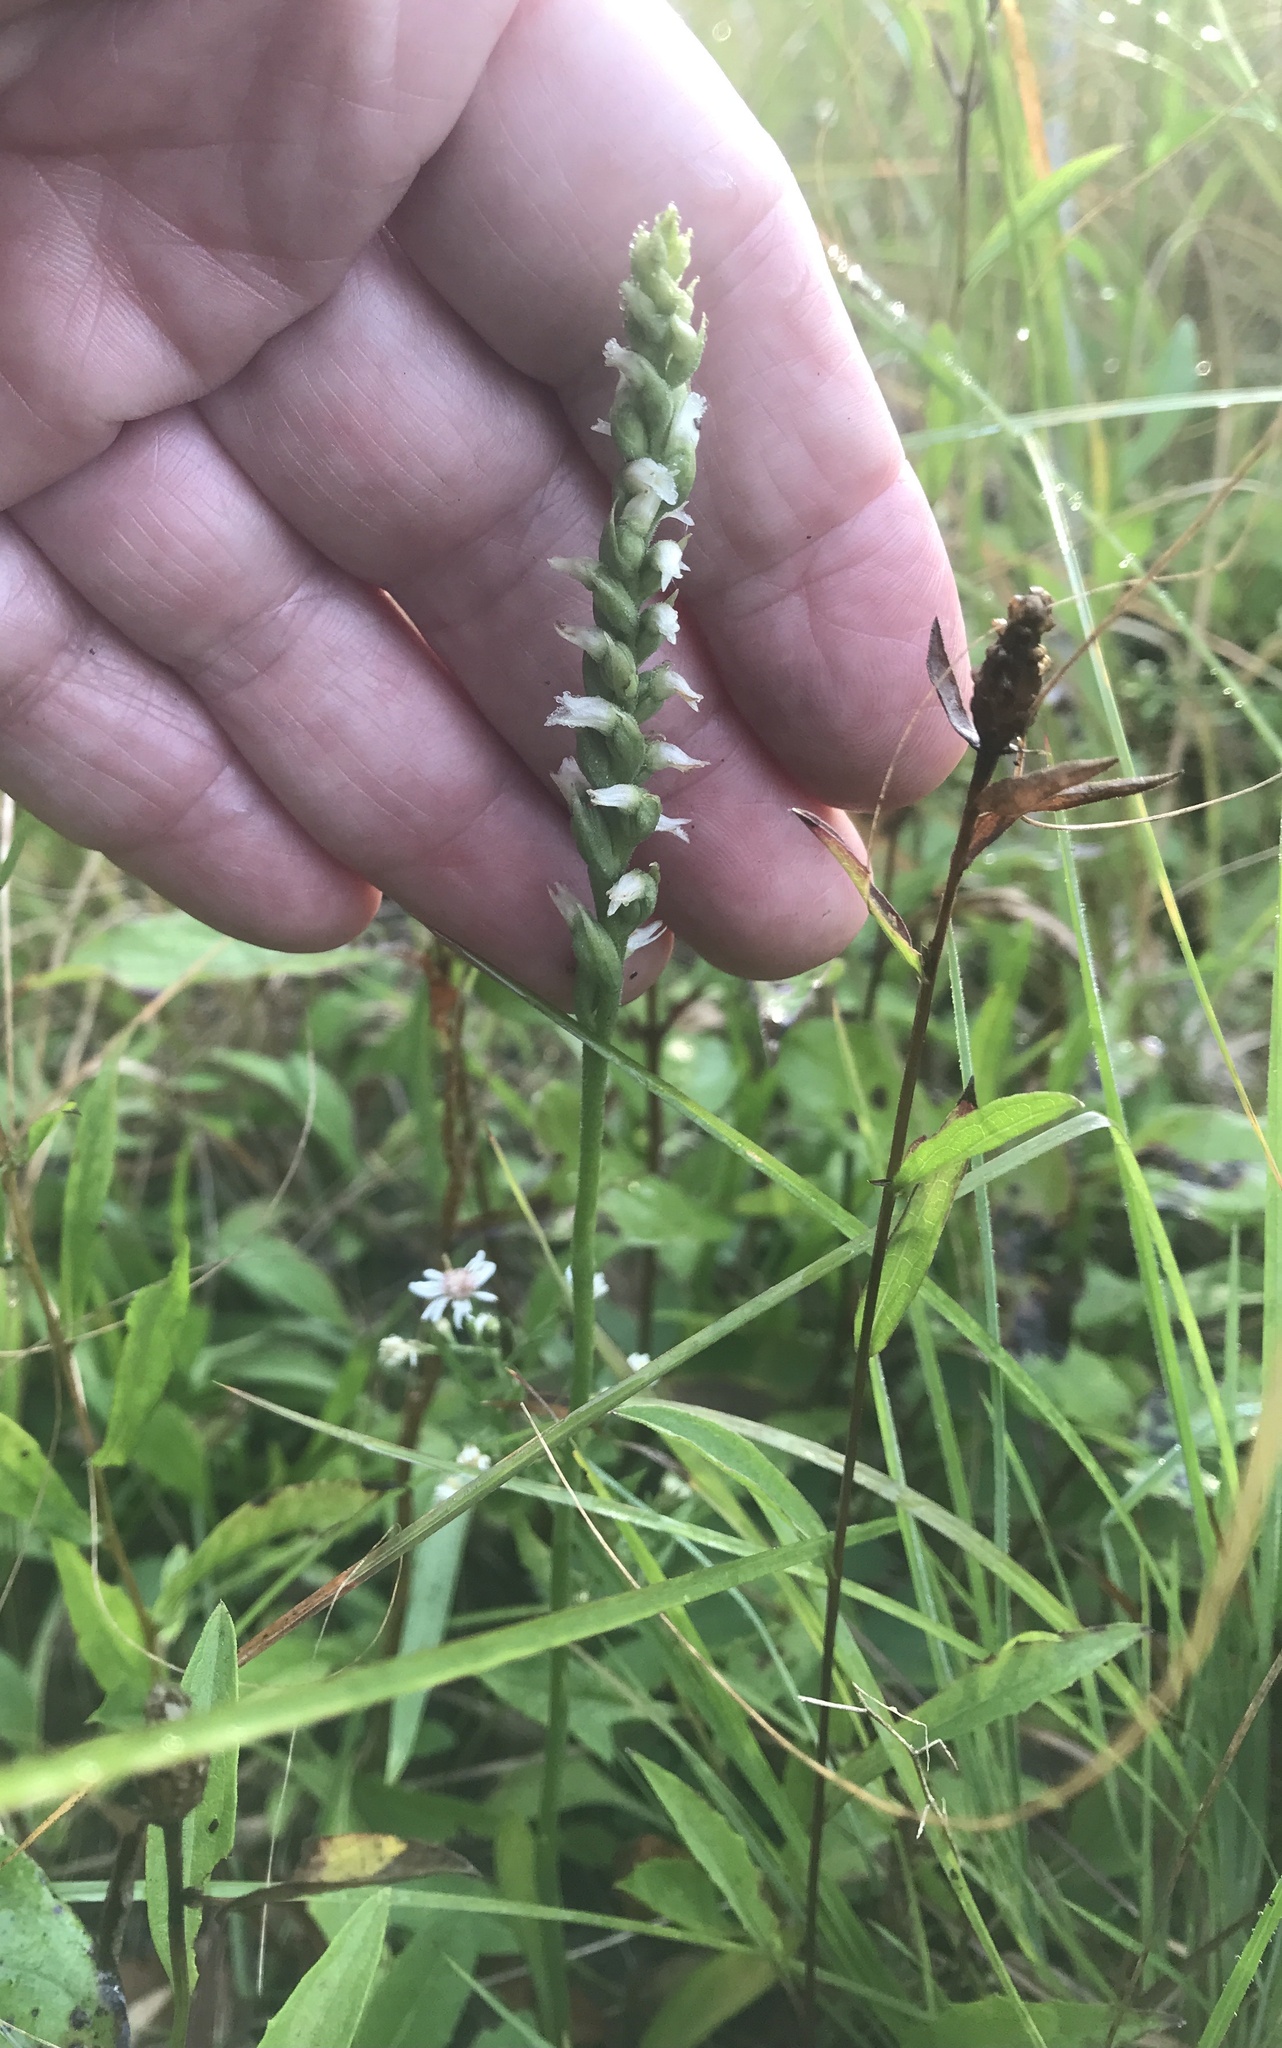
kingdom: Plantae
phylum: Tracheophyta
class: Liliopsida
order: Asparagales
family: Orchidaceae
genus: Spiranthes
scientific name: Spiranthes ovalis
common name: October ladies'-tresses
